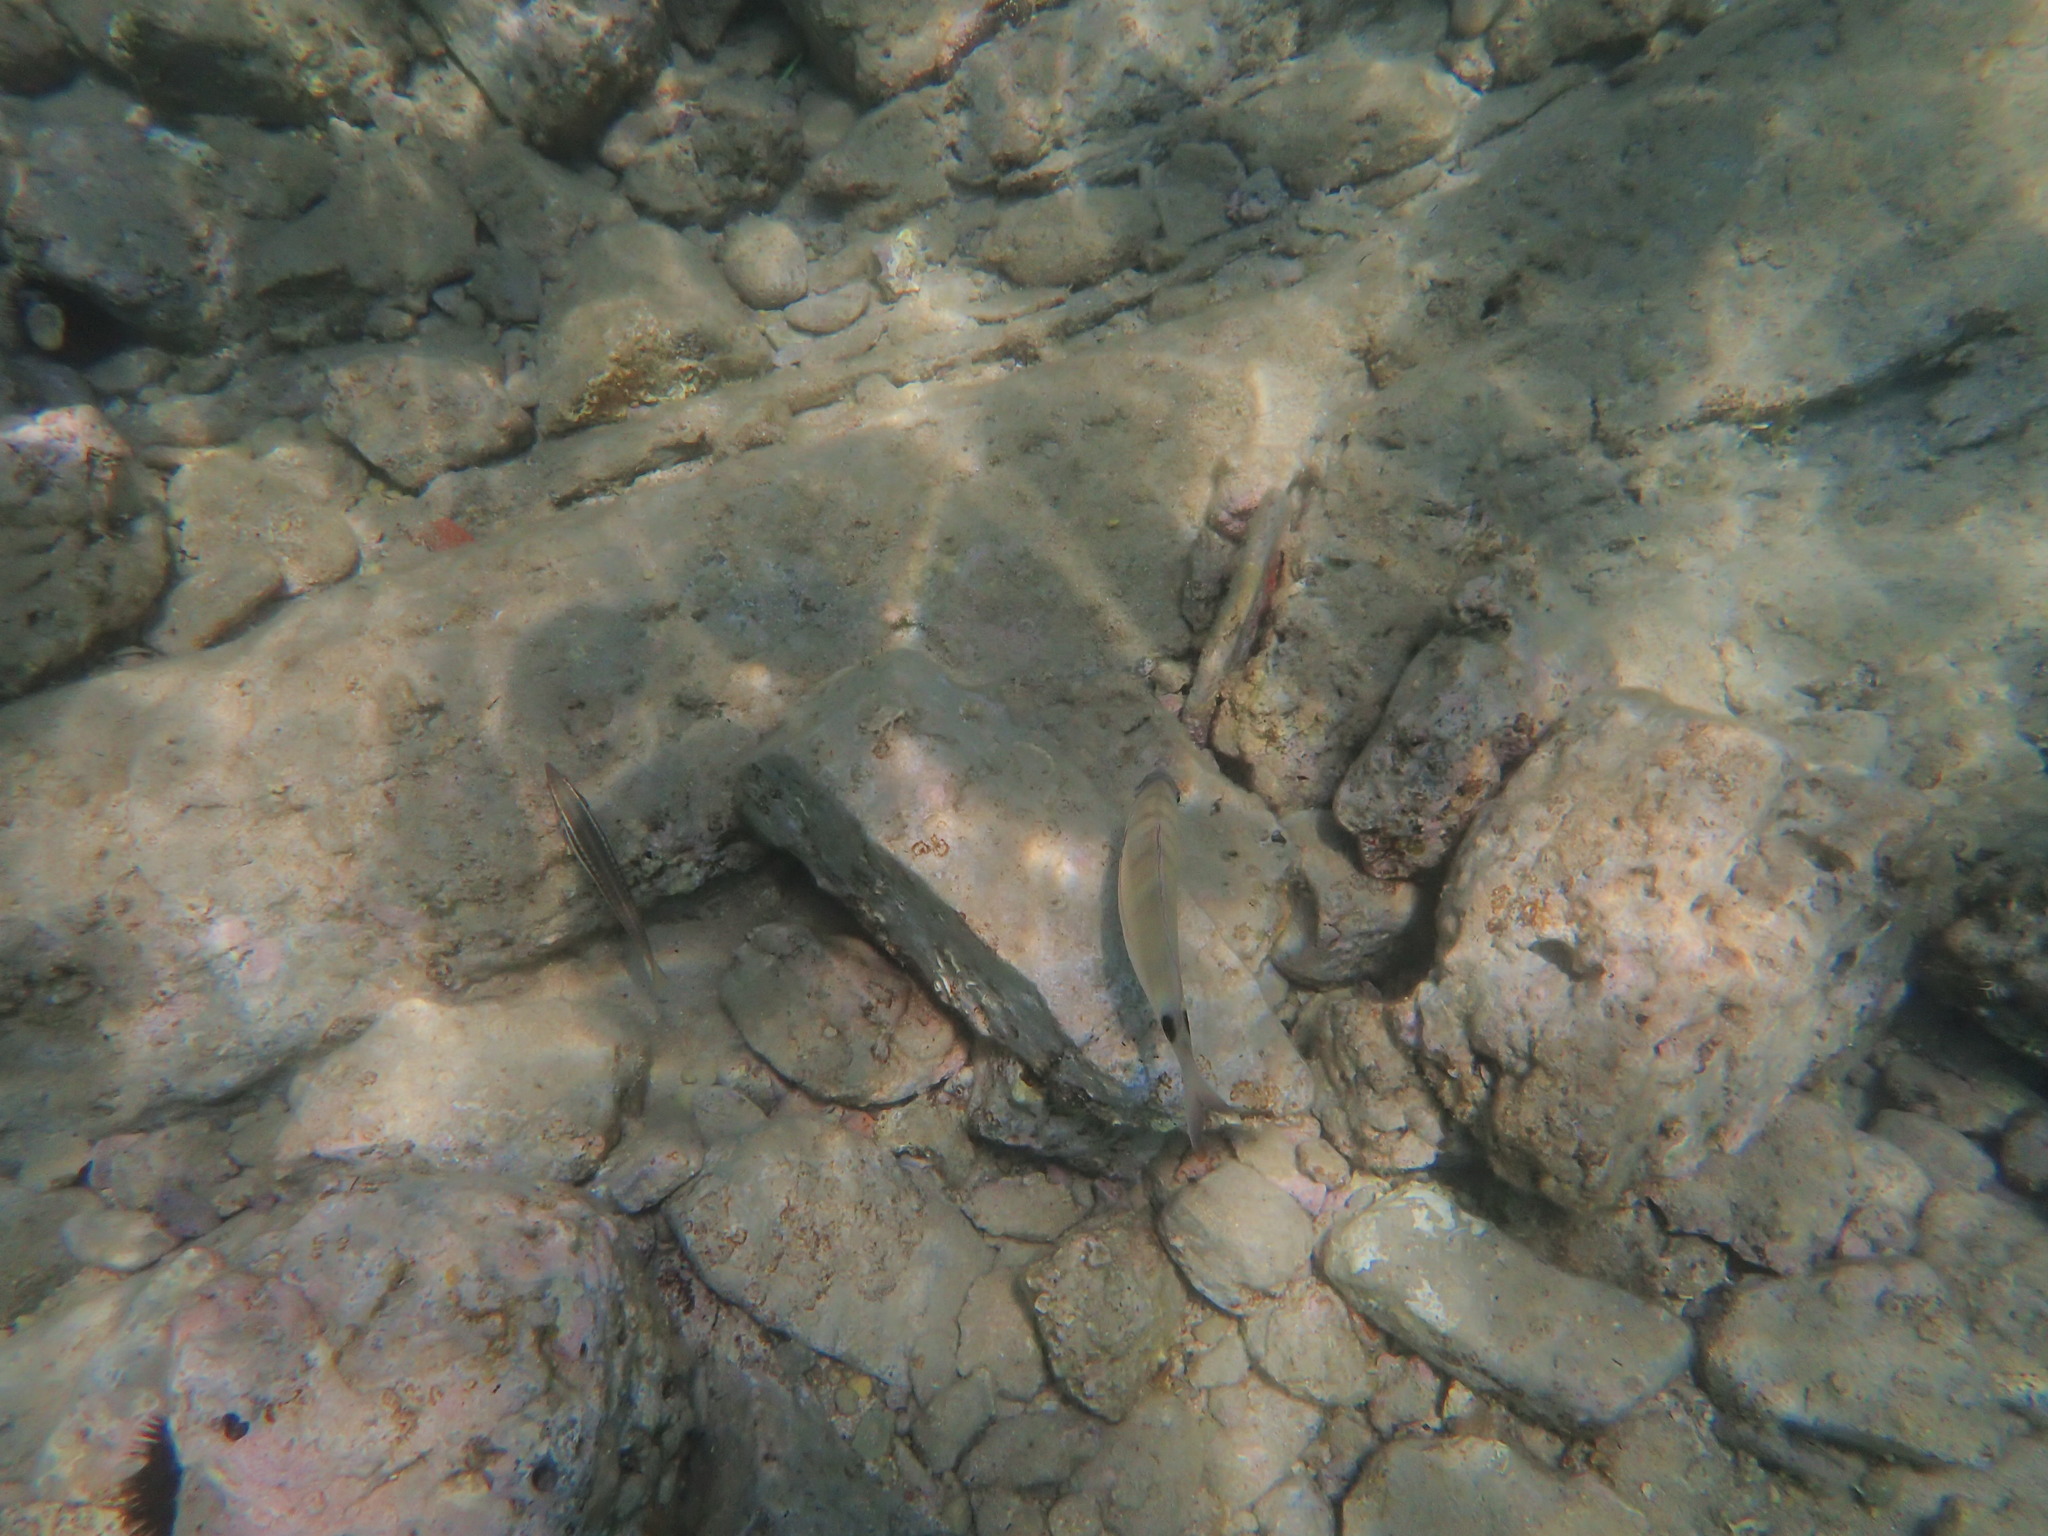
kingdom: Animalia
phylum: Chordata
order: Perciformes
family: Sparidae
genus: Diplodus
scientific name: Diplodus sargus
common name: White seabream
